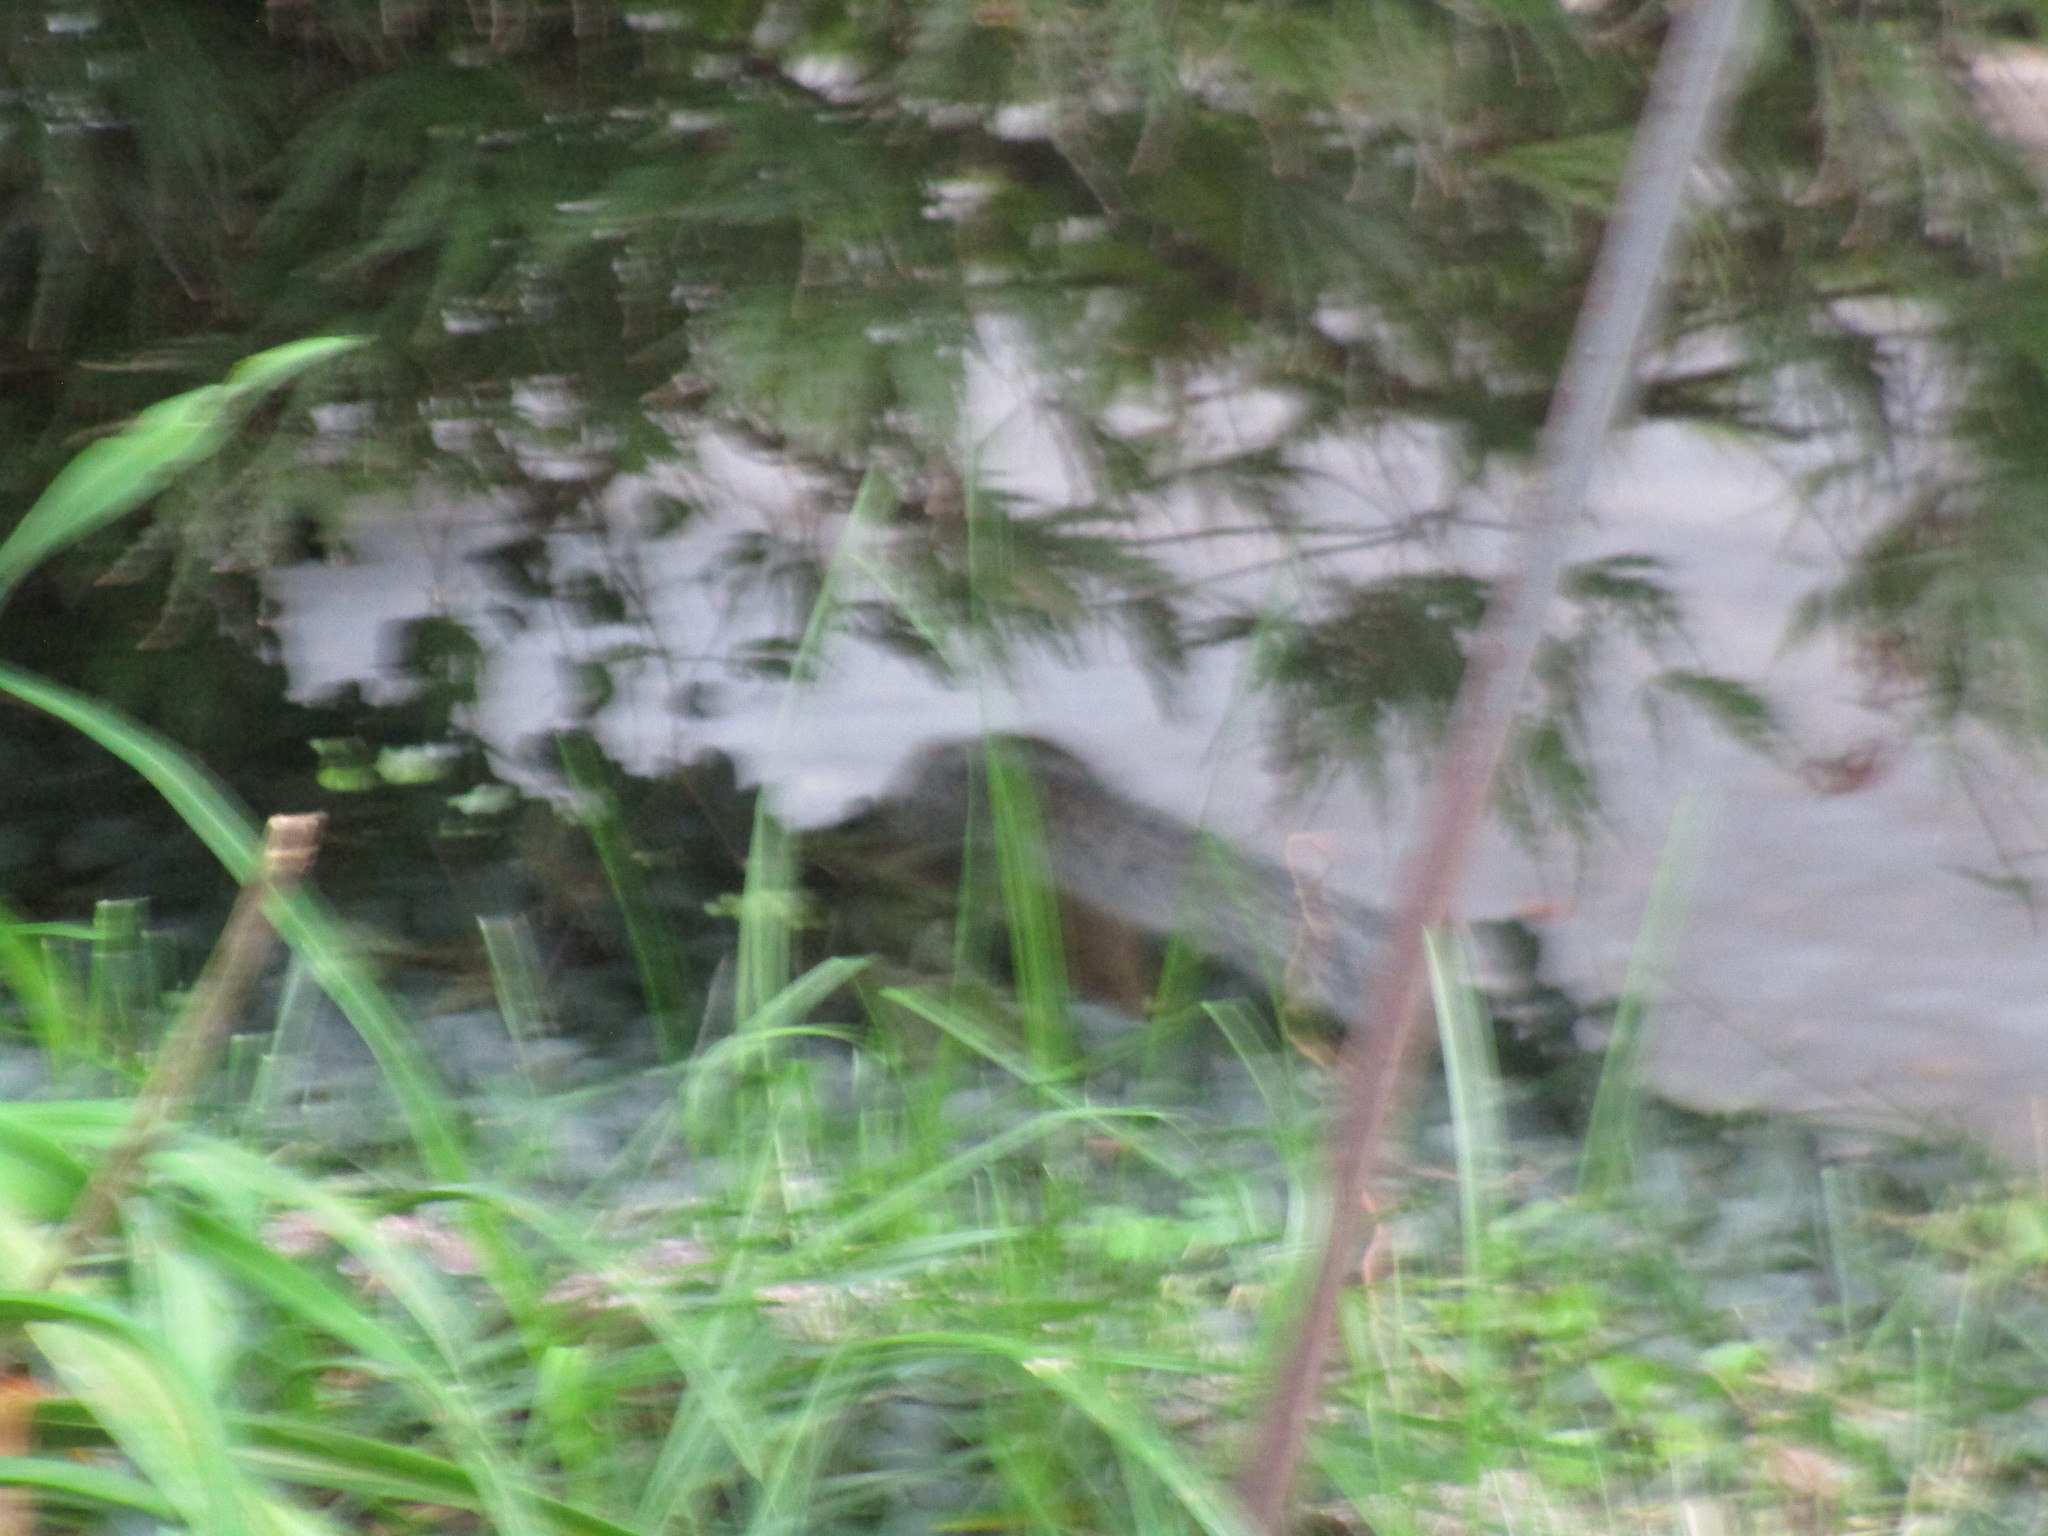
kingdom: Animalia
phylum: Chordata
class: Mammalia
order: Rodentia
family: Sciuridae
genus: Sciurus
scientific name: Sciurus carolinensis
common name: Eastern gray squirrel
